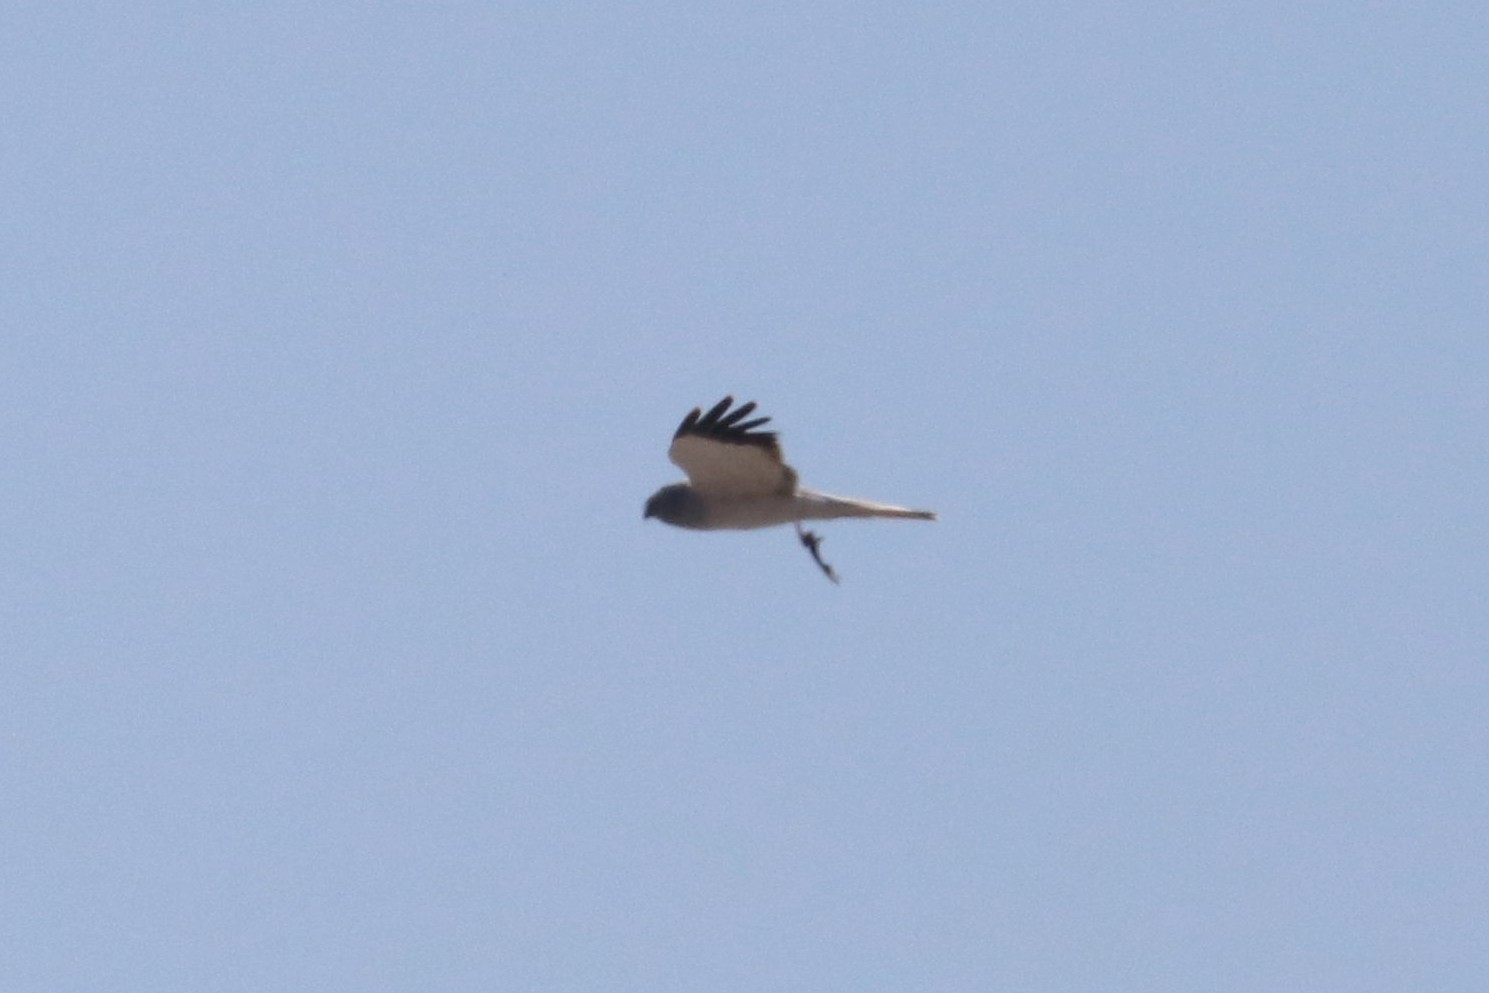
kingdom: Animalia
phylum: Chordata
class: Aves
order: Accipitriformes
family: Accipitridae
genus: Circus
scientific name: Circus cyaneus
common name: Hen harrier
